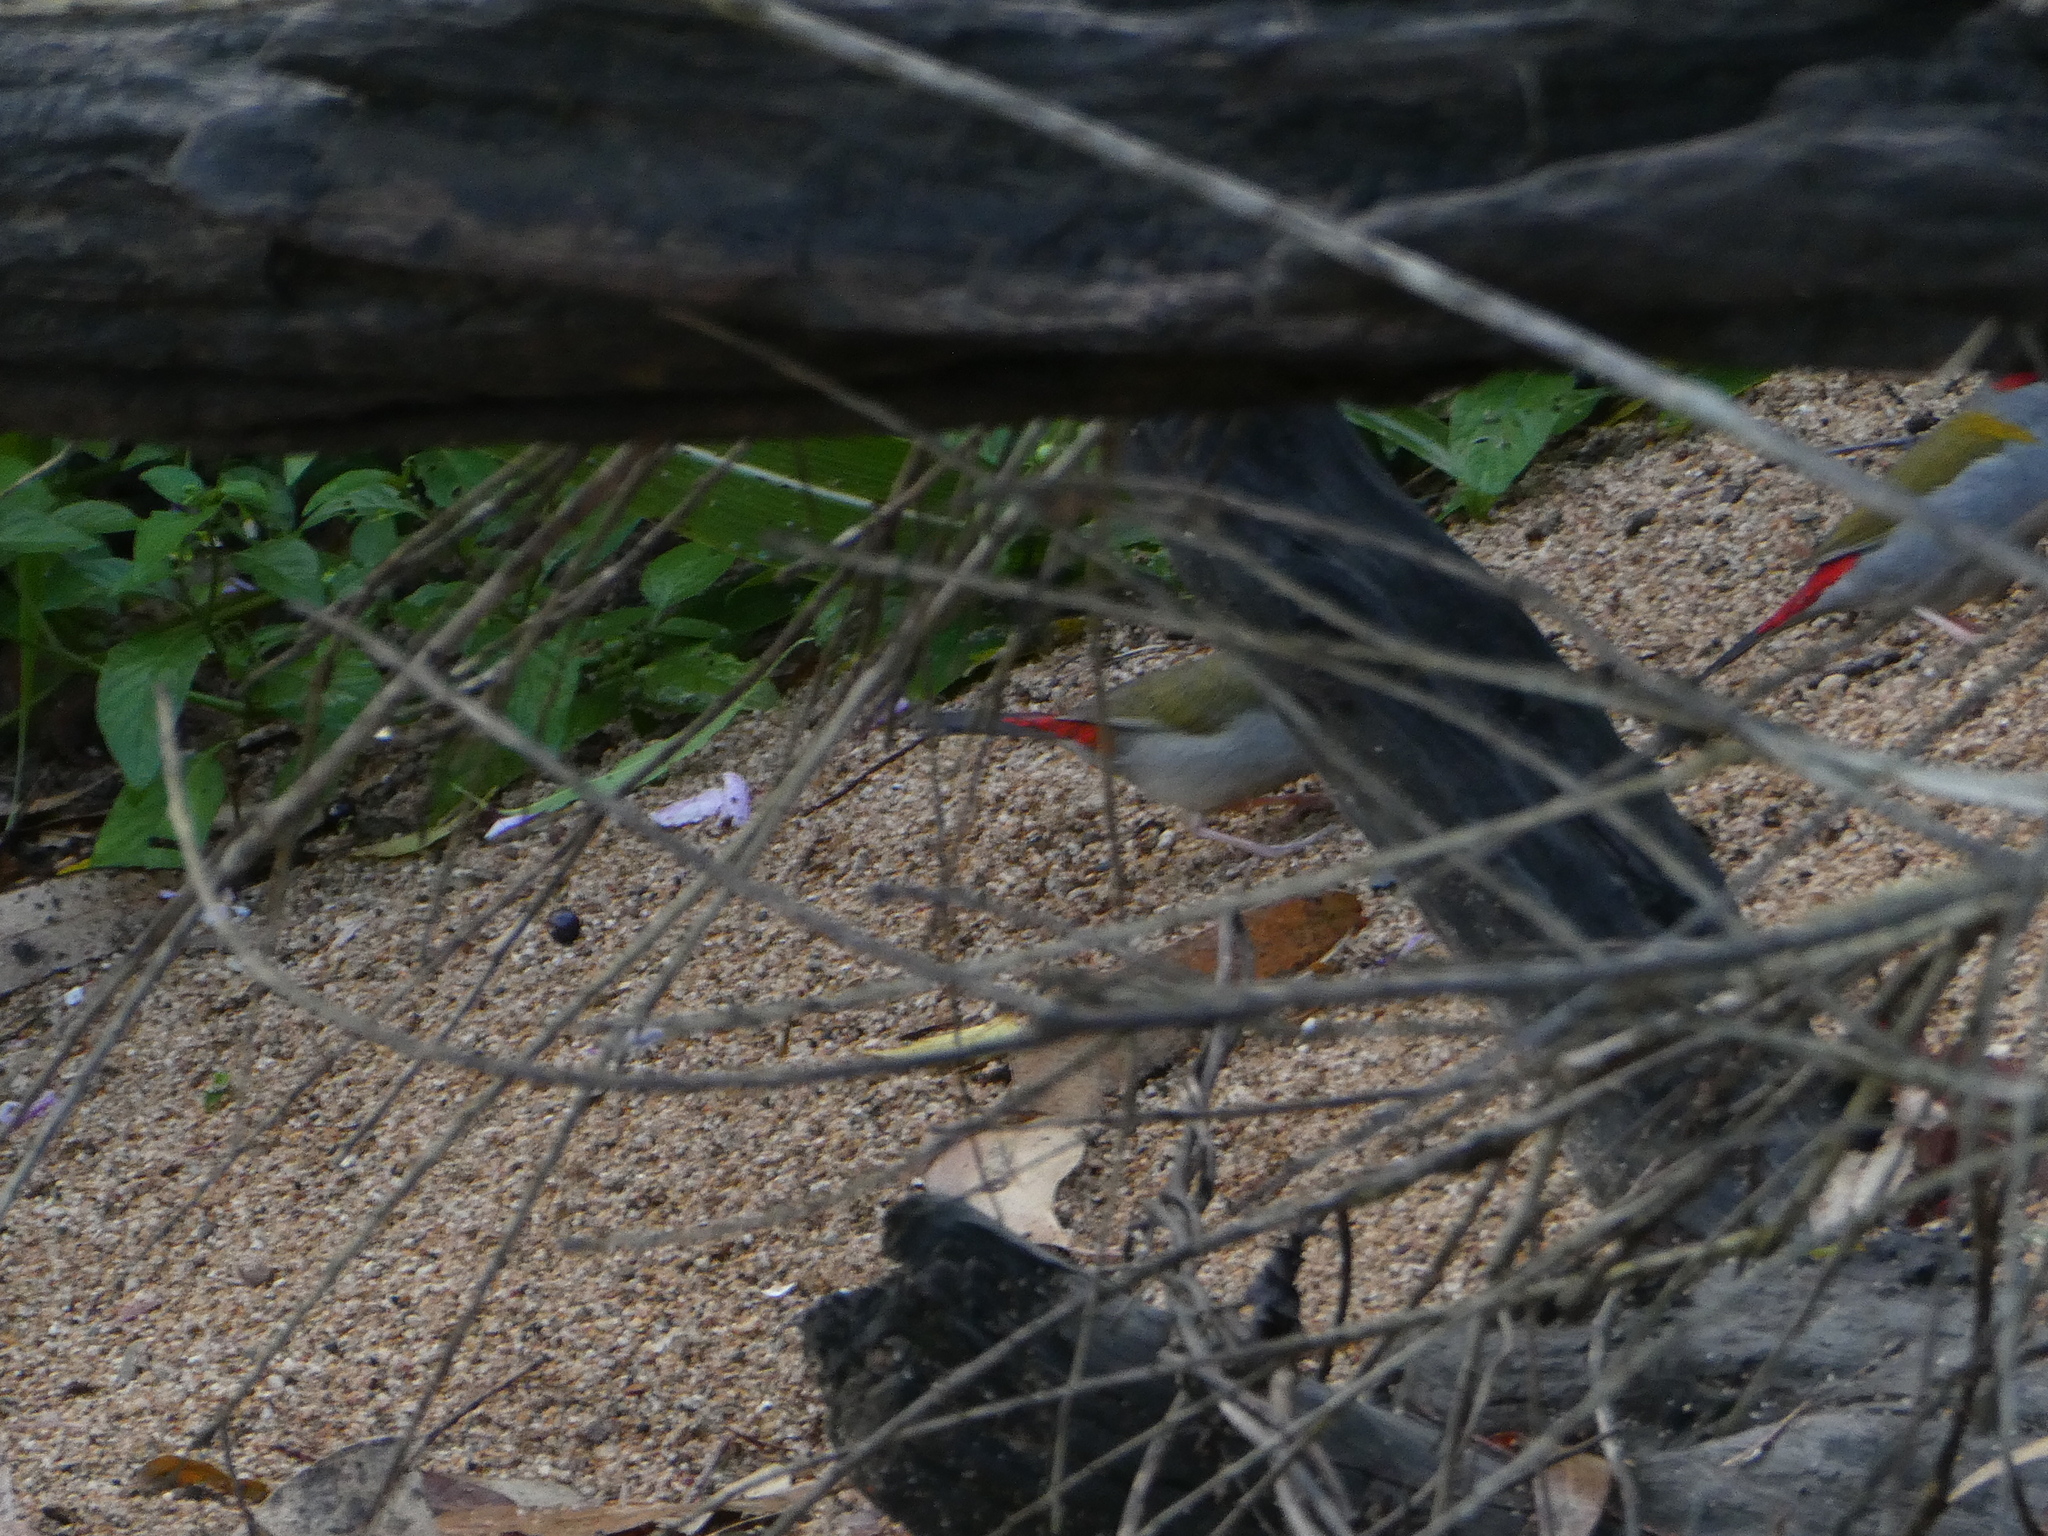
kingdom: Animalia
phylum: Chordata
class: Aves
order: Passeriformes
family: Estrildidae
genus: Neochmia
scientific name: Neochmia temporalis
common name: Red-browed finch
